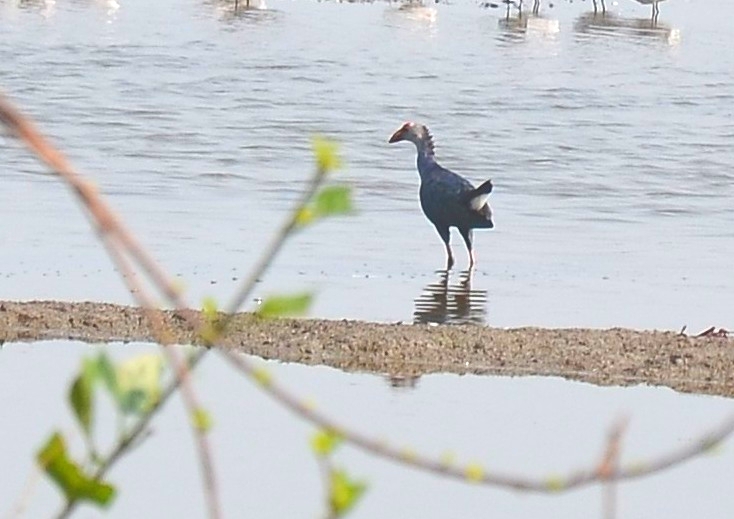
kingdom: Animalia
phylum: Chordata
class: Aves
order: Gruiformes
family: Rallidae
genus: Porphyrio
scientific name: Porphyrio porphyrio
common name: Purple swamphen
